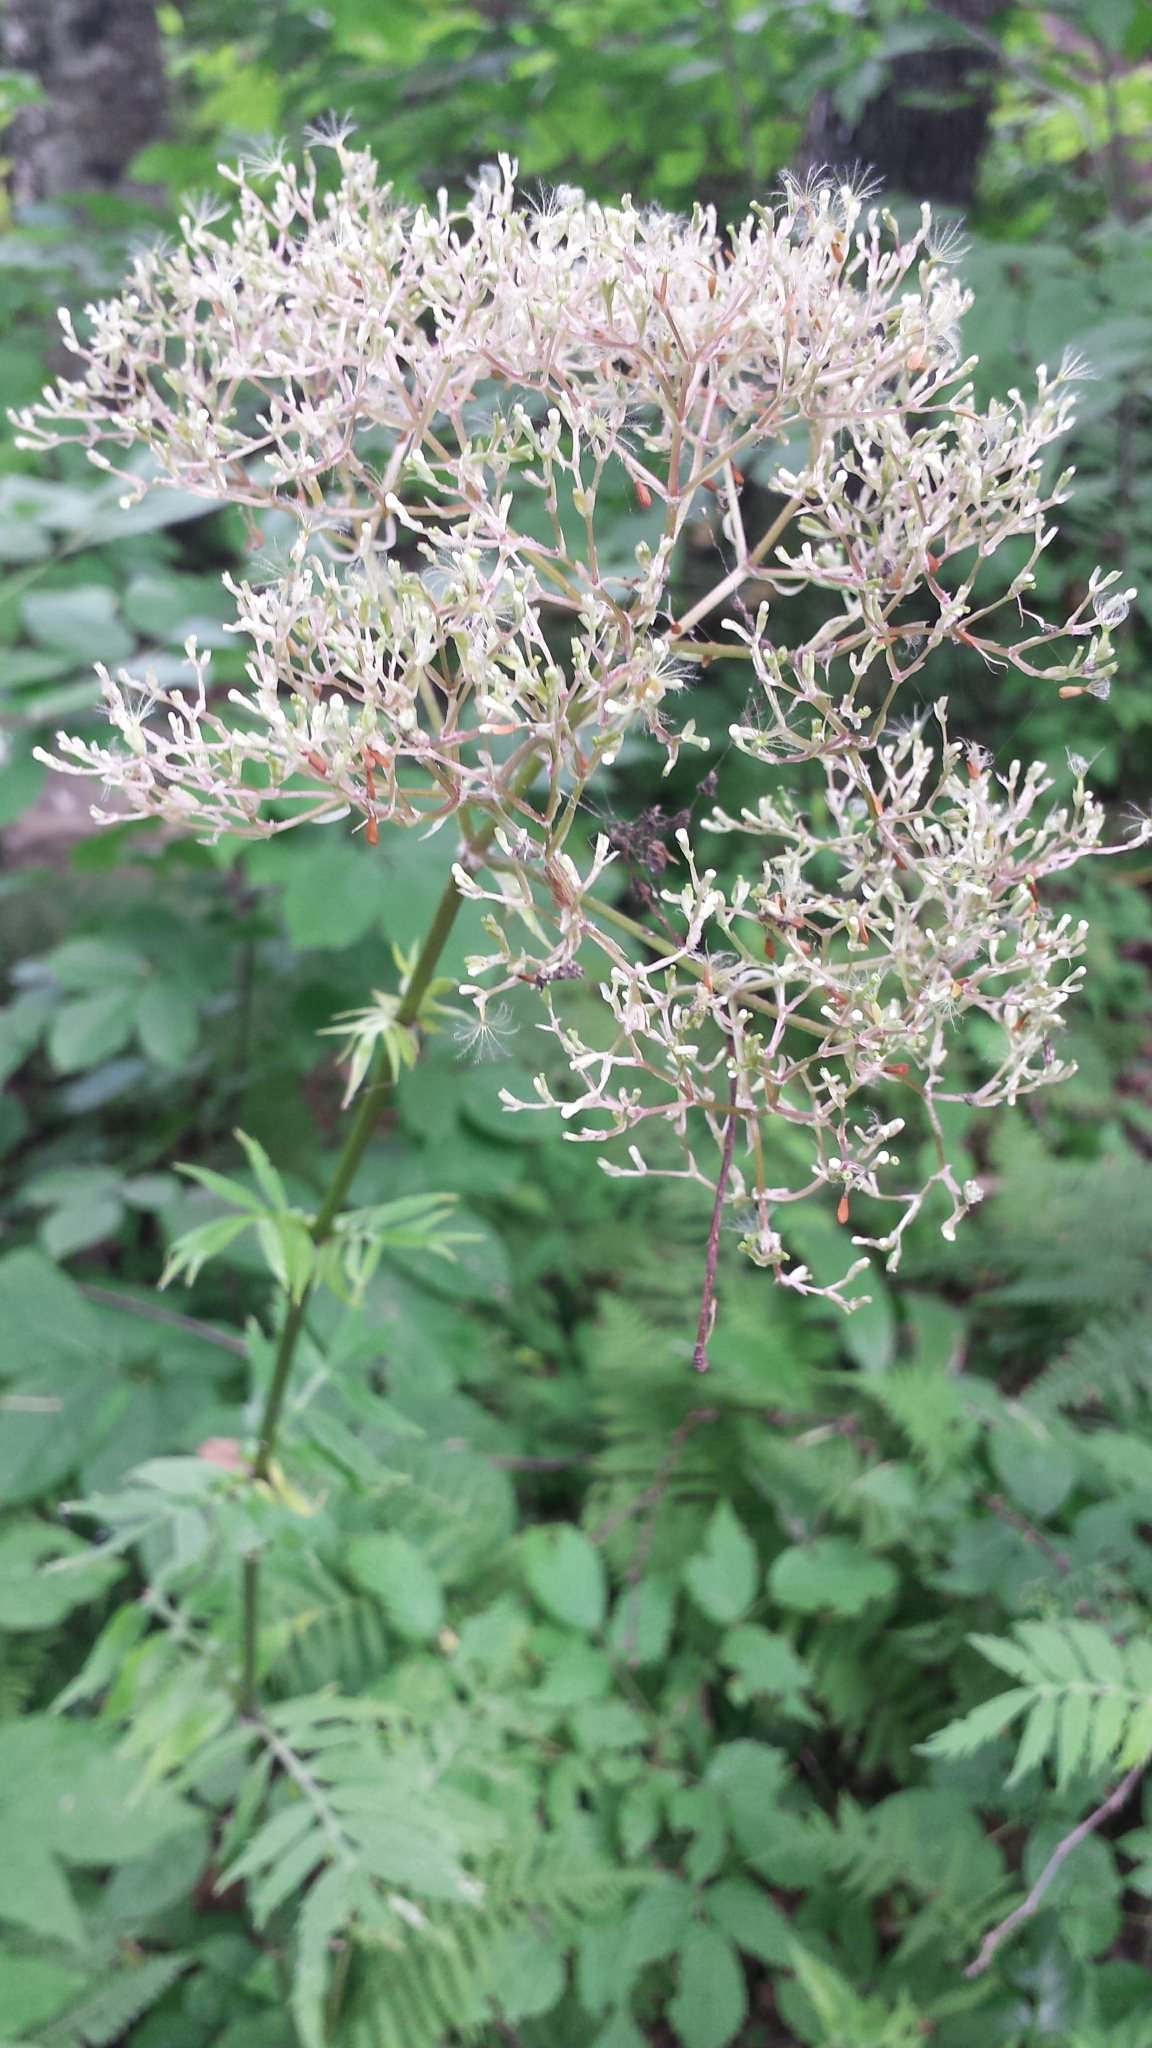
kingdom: Plantae
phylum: Tracheophyta
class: Magnoliopsida
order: Dipsacales
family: Caprifoliaceae
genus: Valeriana
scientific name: Valeriana officinalis
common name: Common valerian
